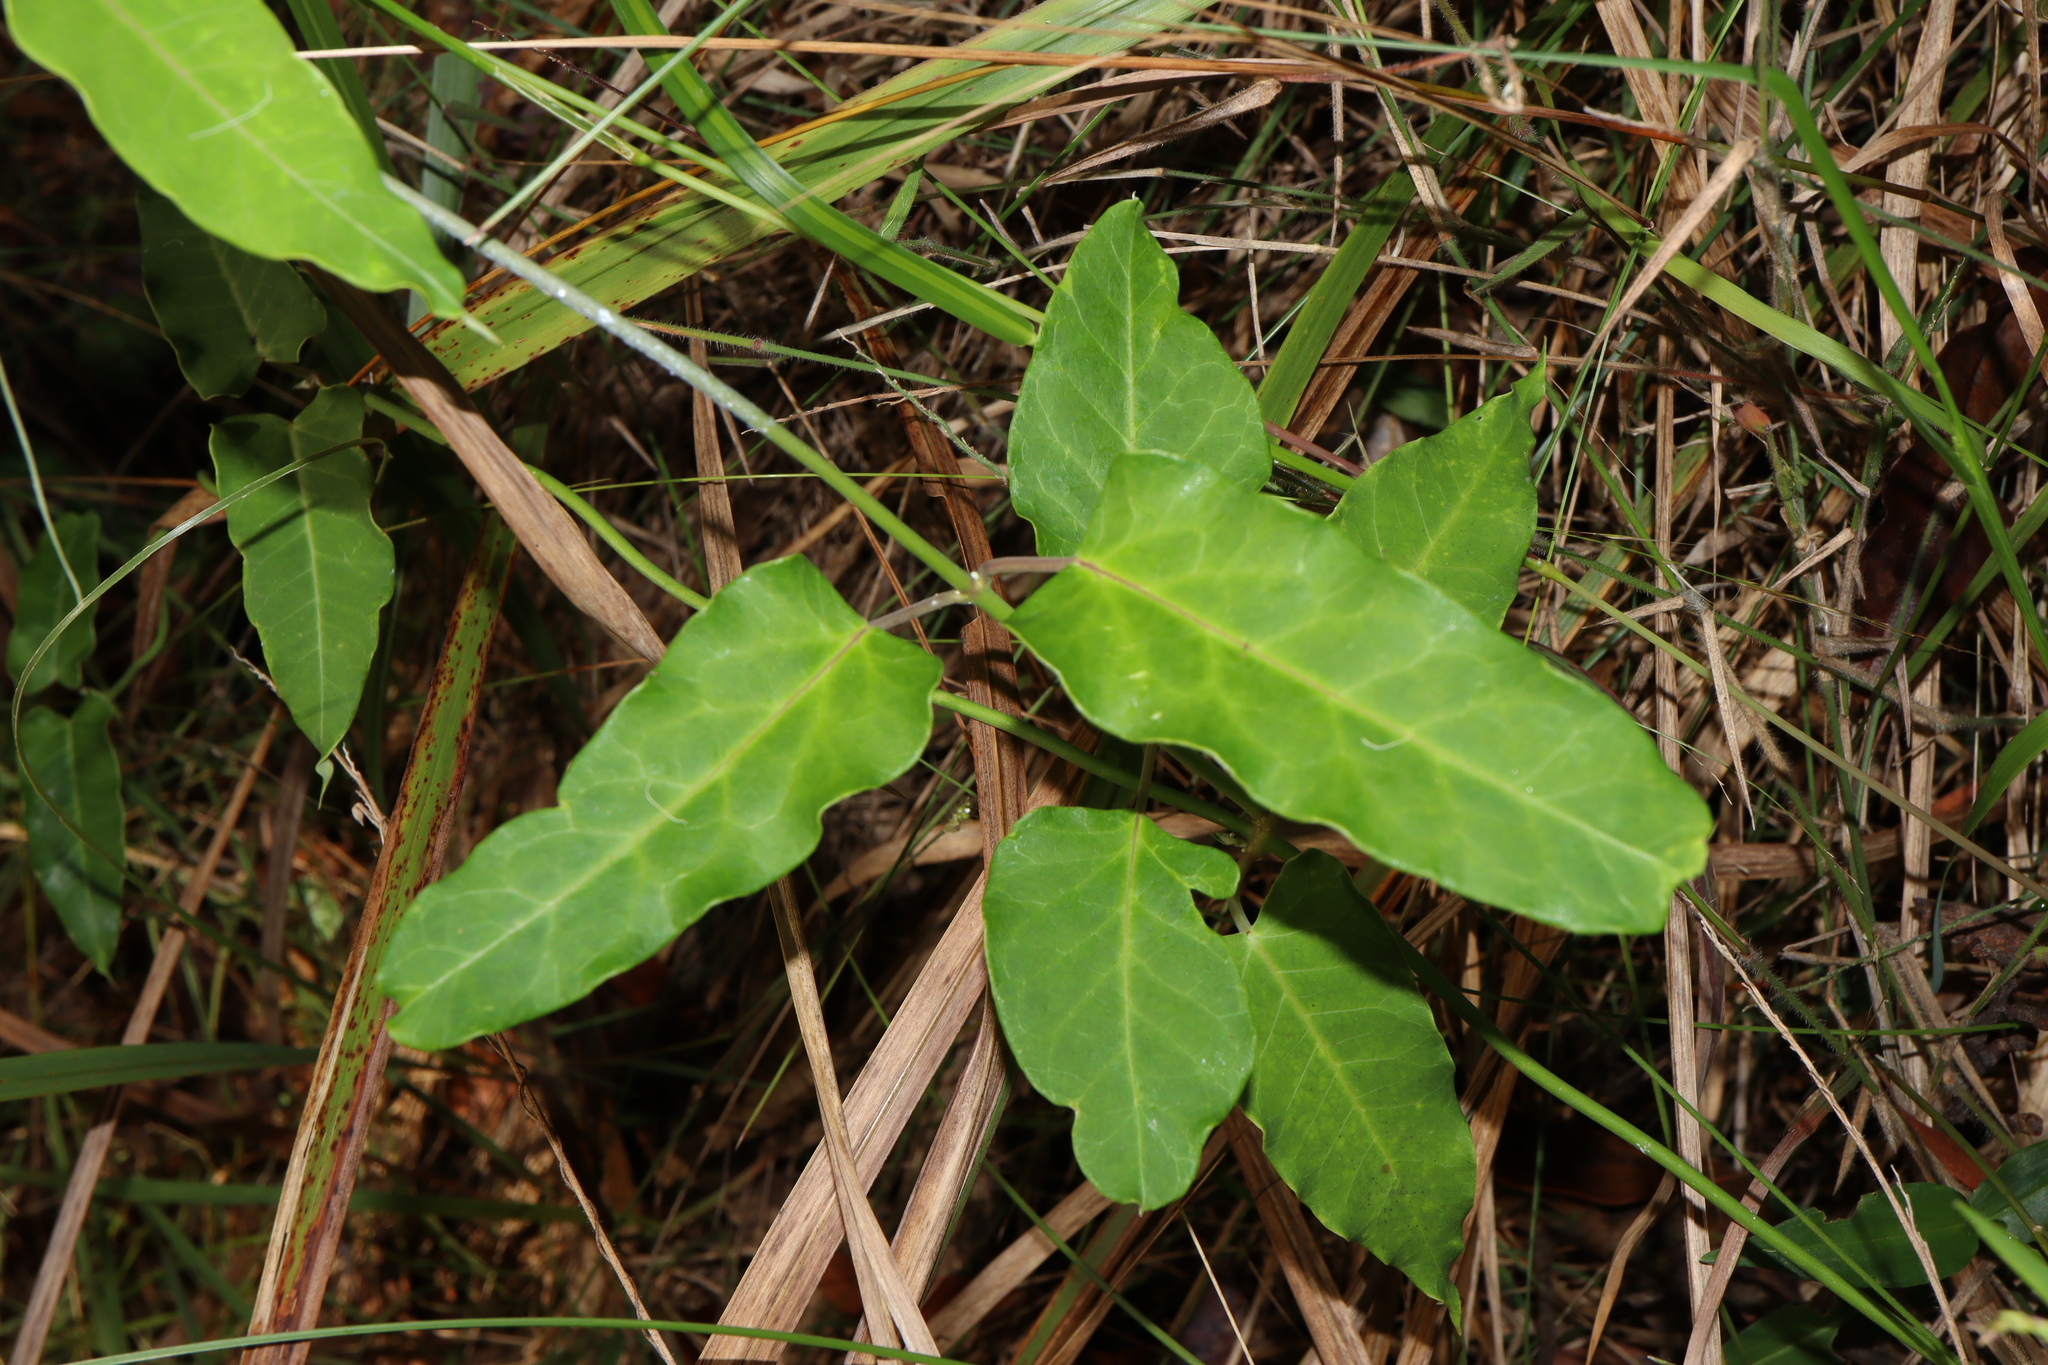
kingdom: Plantae
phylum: Tracheophyta
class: Magnoliopsida
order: Gentianales
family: Apocynaceae
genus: Araujia
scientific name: Araujia sericifera
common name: White bladderflower
